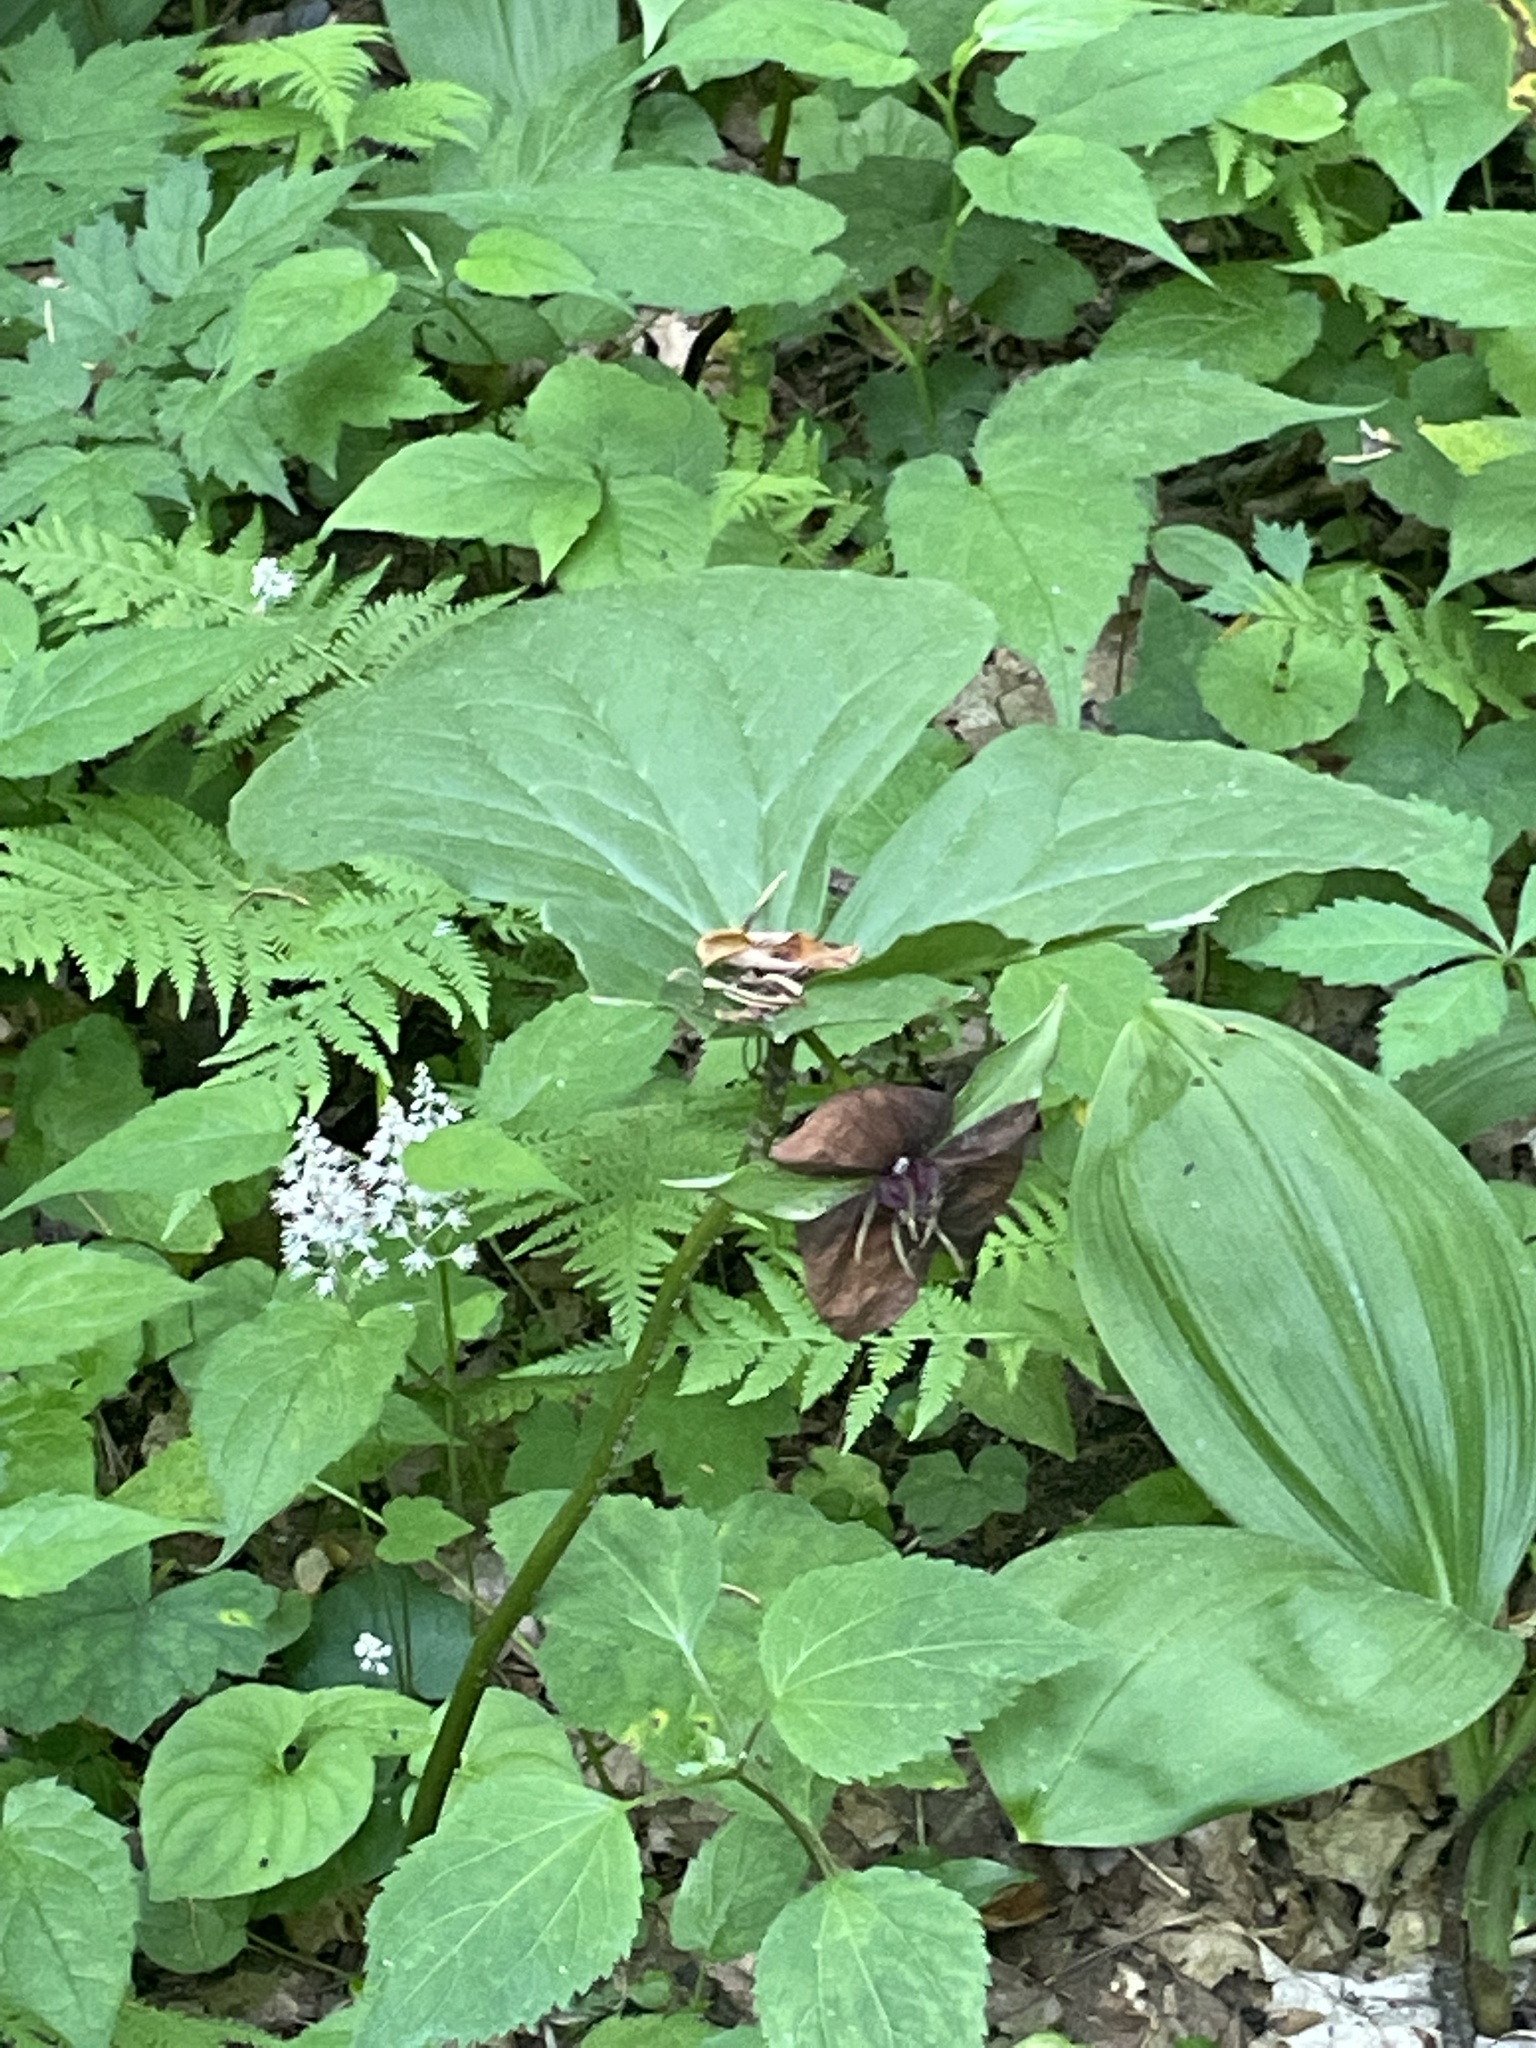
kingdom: Plantae
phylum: Tracheophyta
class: Liliopsida
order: Liliales
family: Melanthiaceae
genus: Trillium
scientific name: Trillium vaseyi
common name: Sweet trillium
